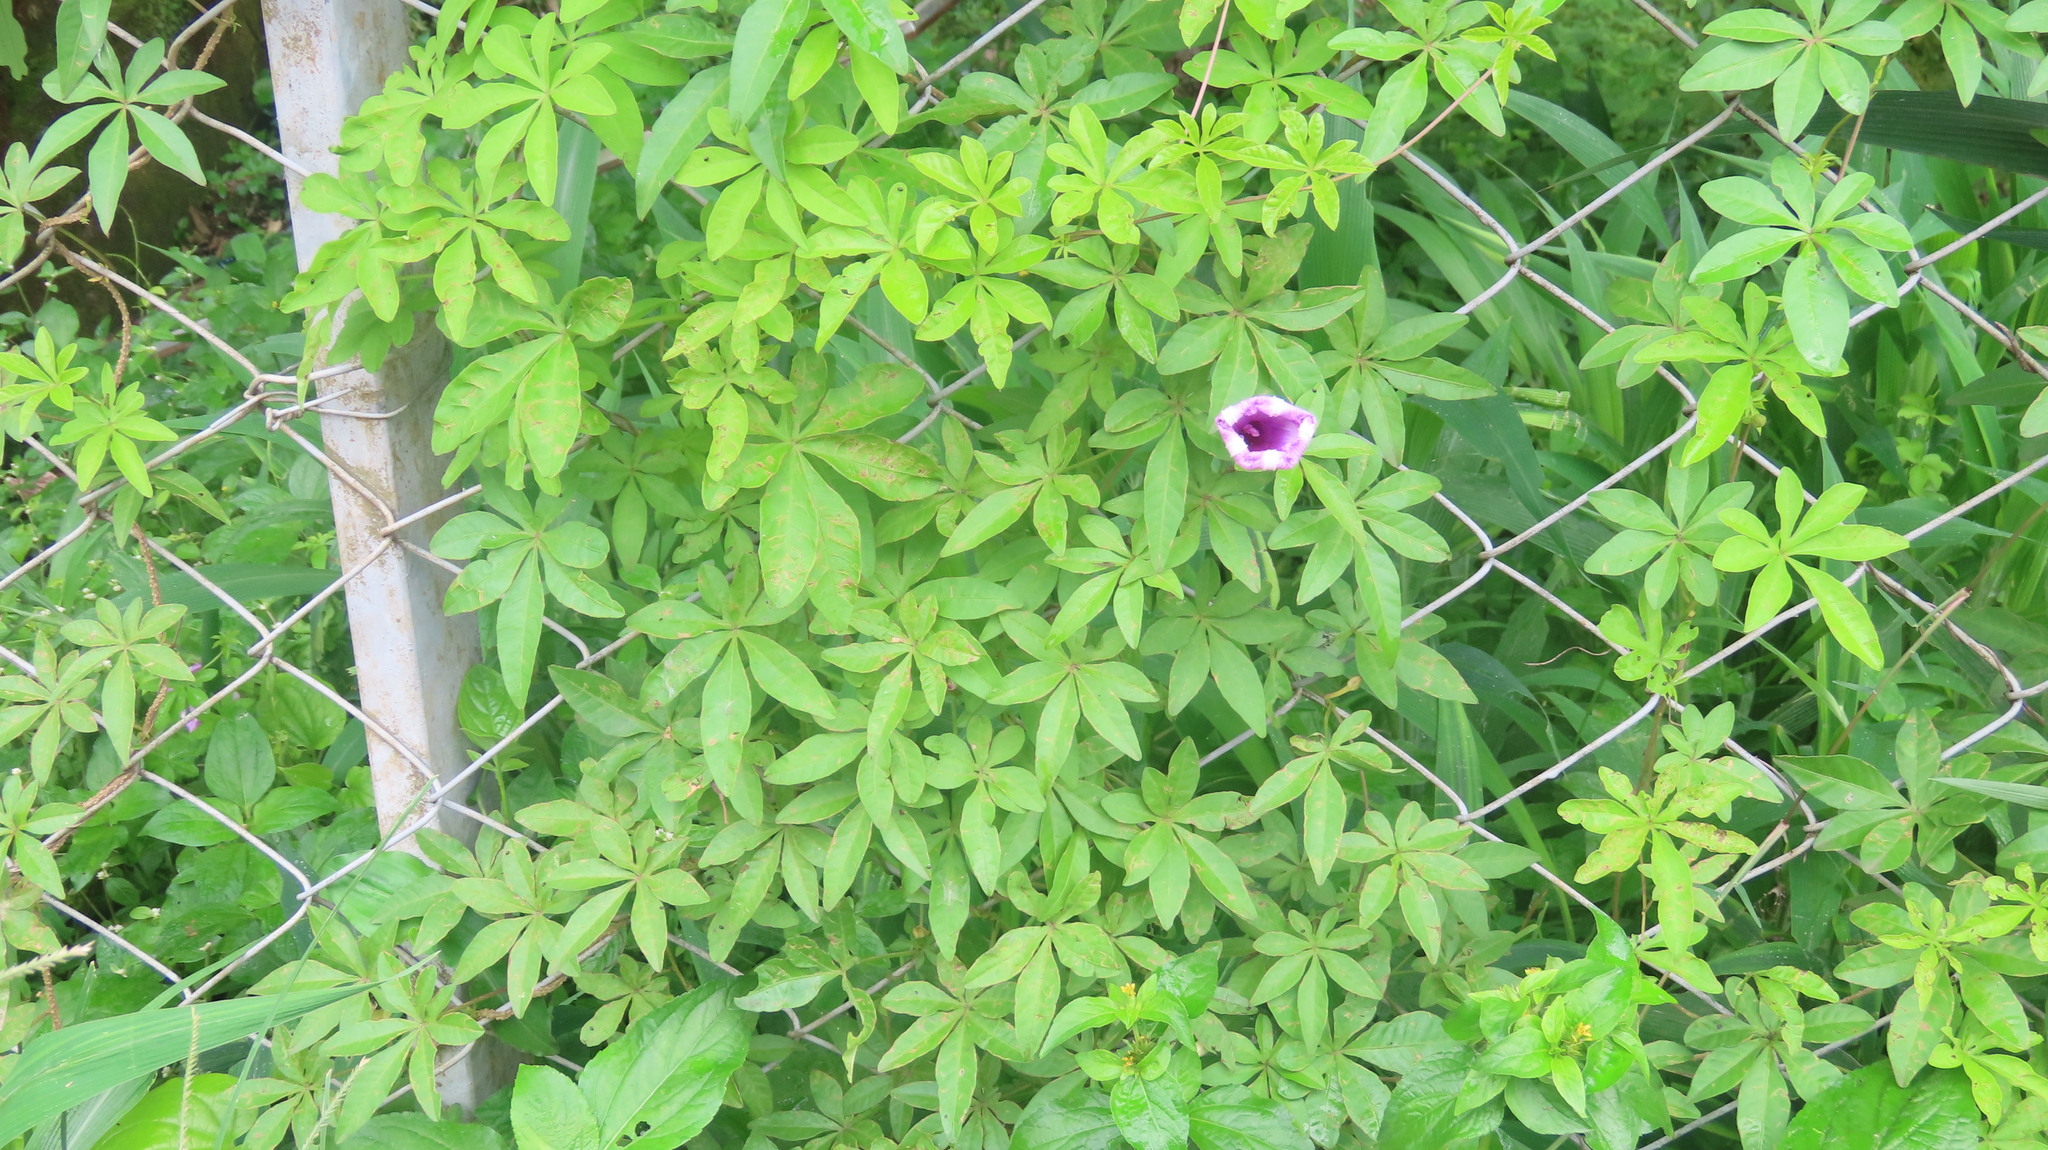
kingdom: Plantae
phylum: Tracheophyta
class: Magnoliopsida
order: Solanales
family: Convolvulaceae
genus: Ipomoea
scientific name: Ipomoea cairica
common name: Mile a minute vine
